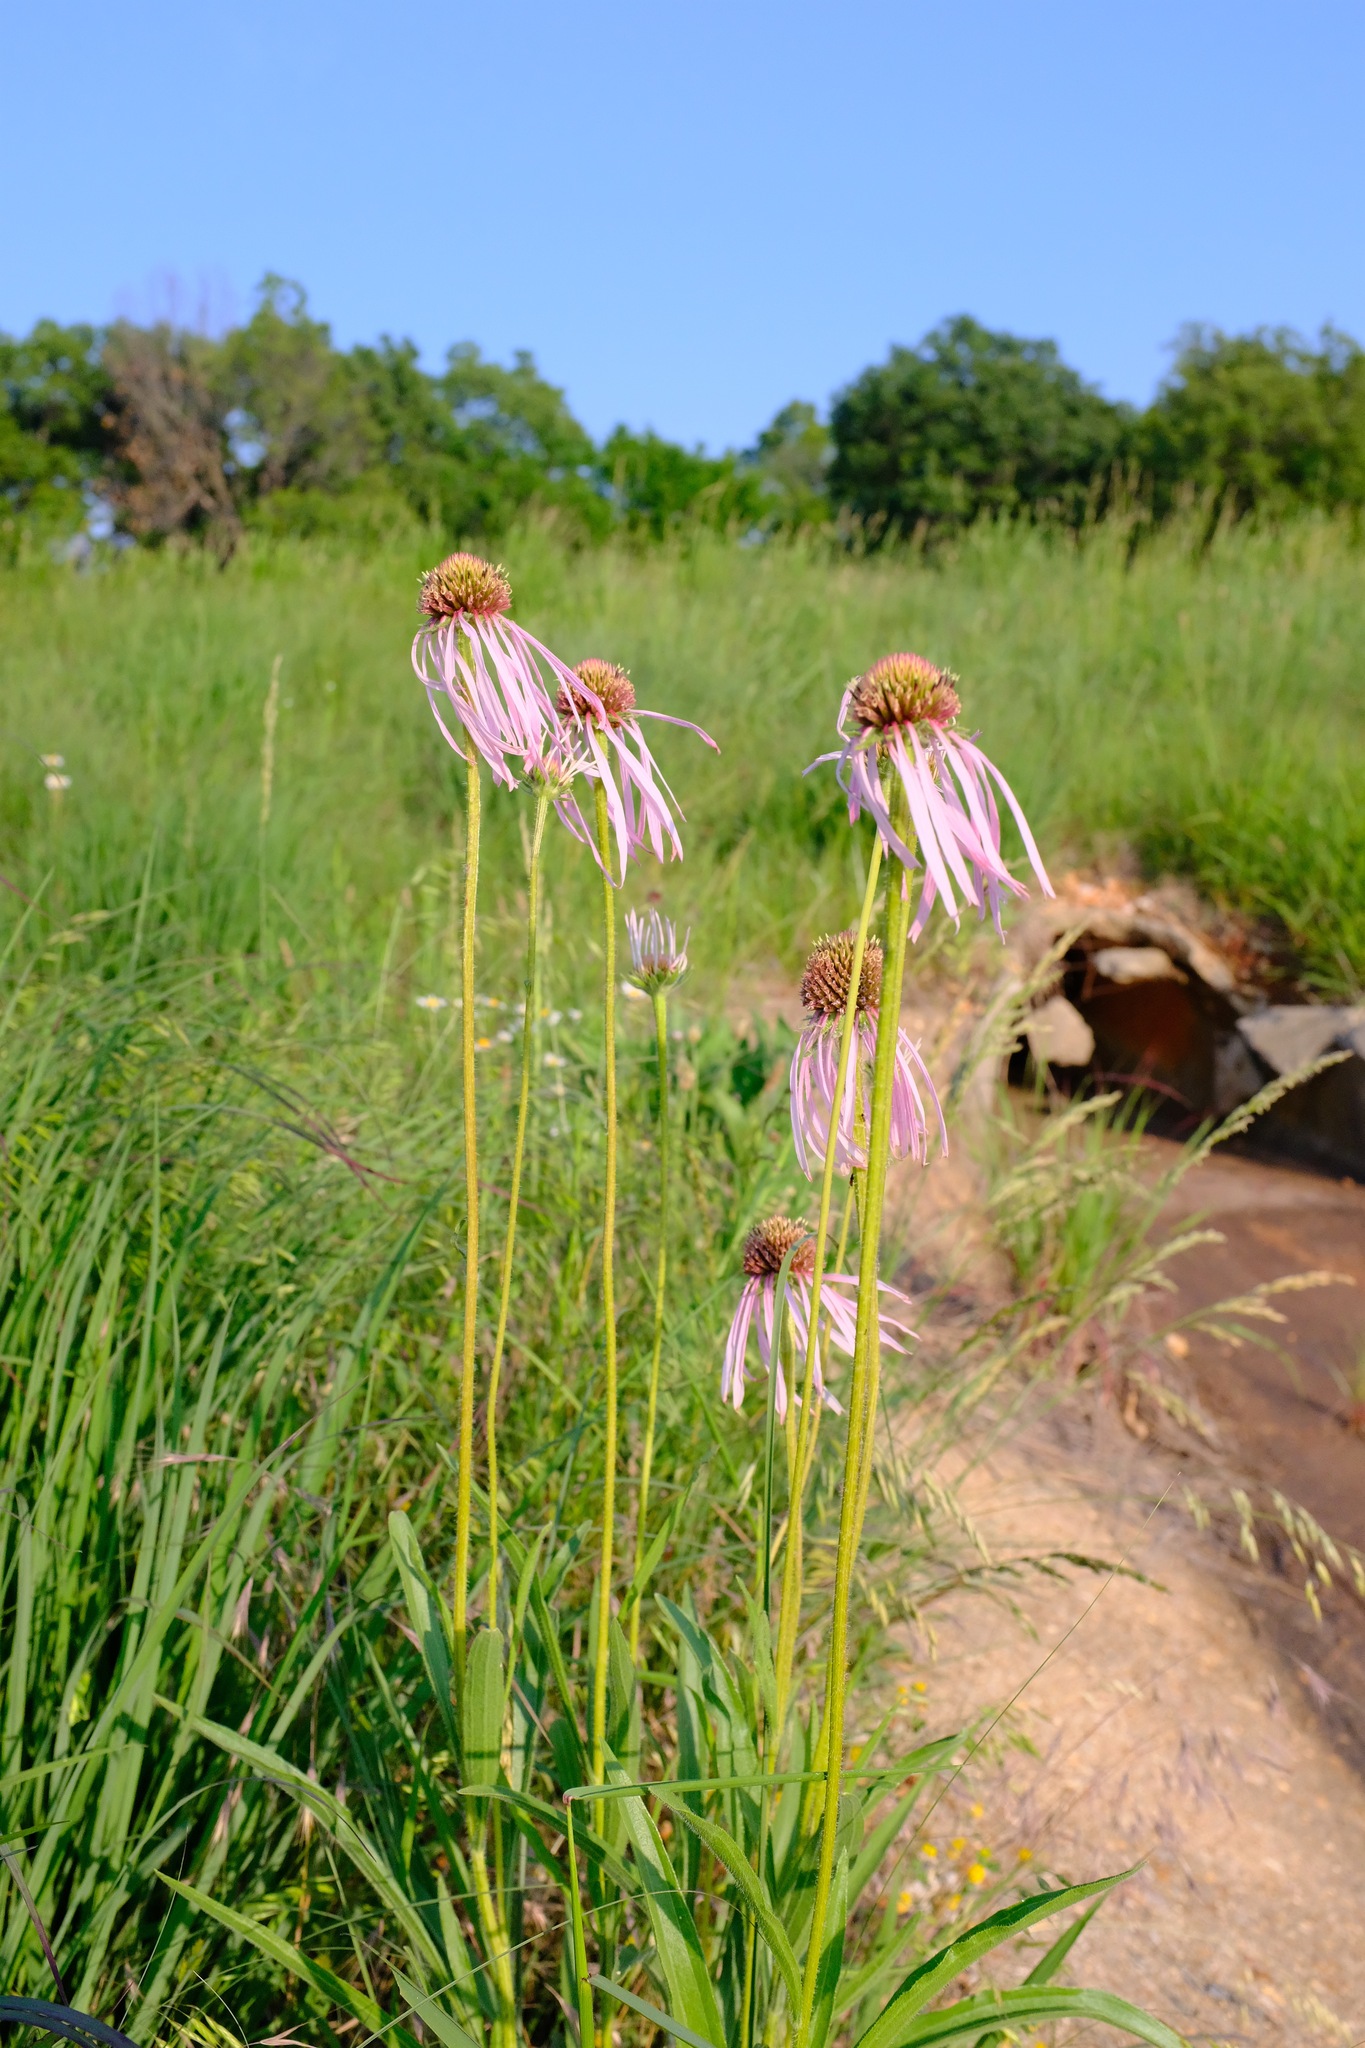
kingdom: Plantae
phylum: Tracheophyta
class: Magnoliopsida
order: Asterales
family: Asteraceae
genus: Echinacea
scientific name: Echinacea pallida
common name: Pale echinacea
